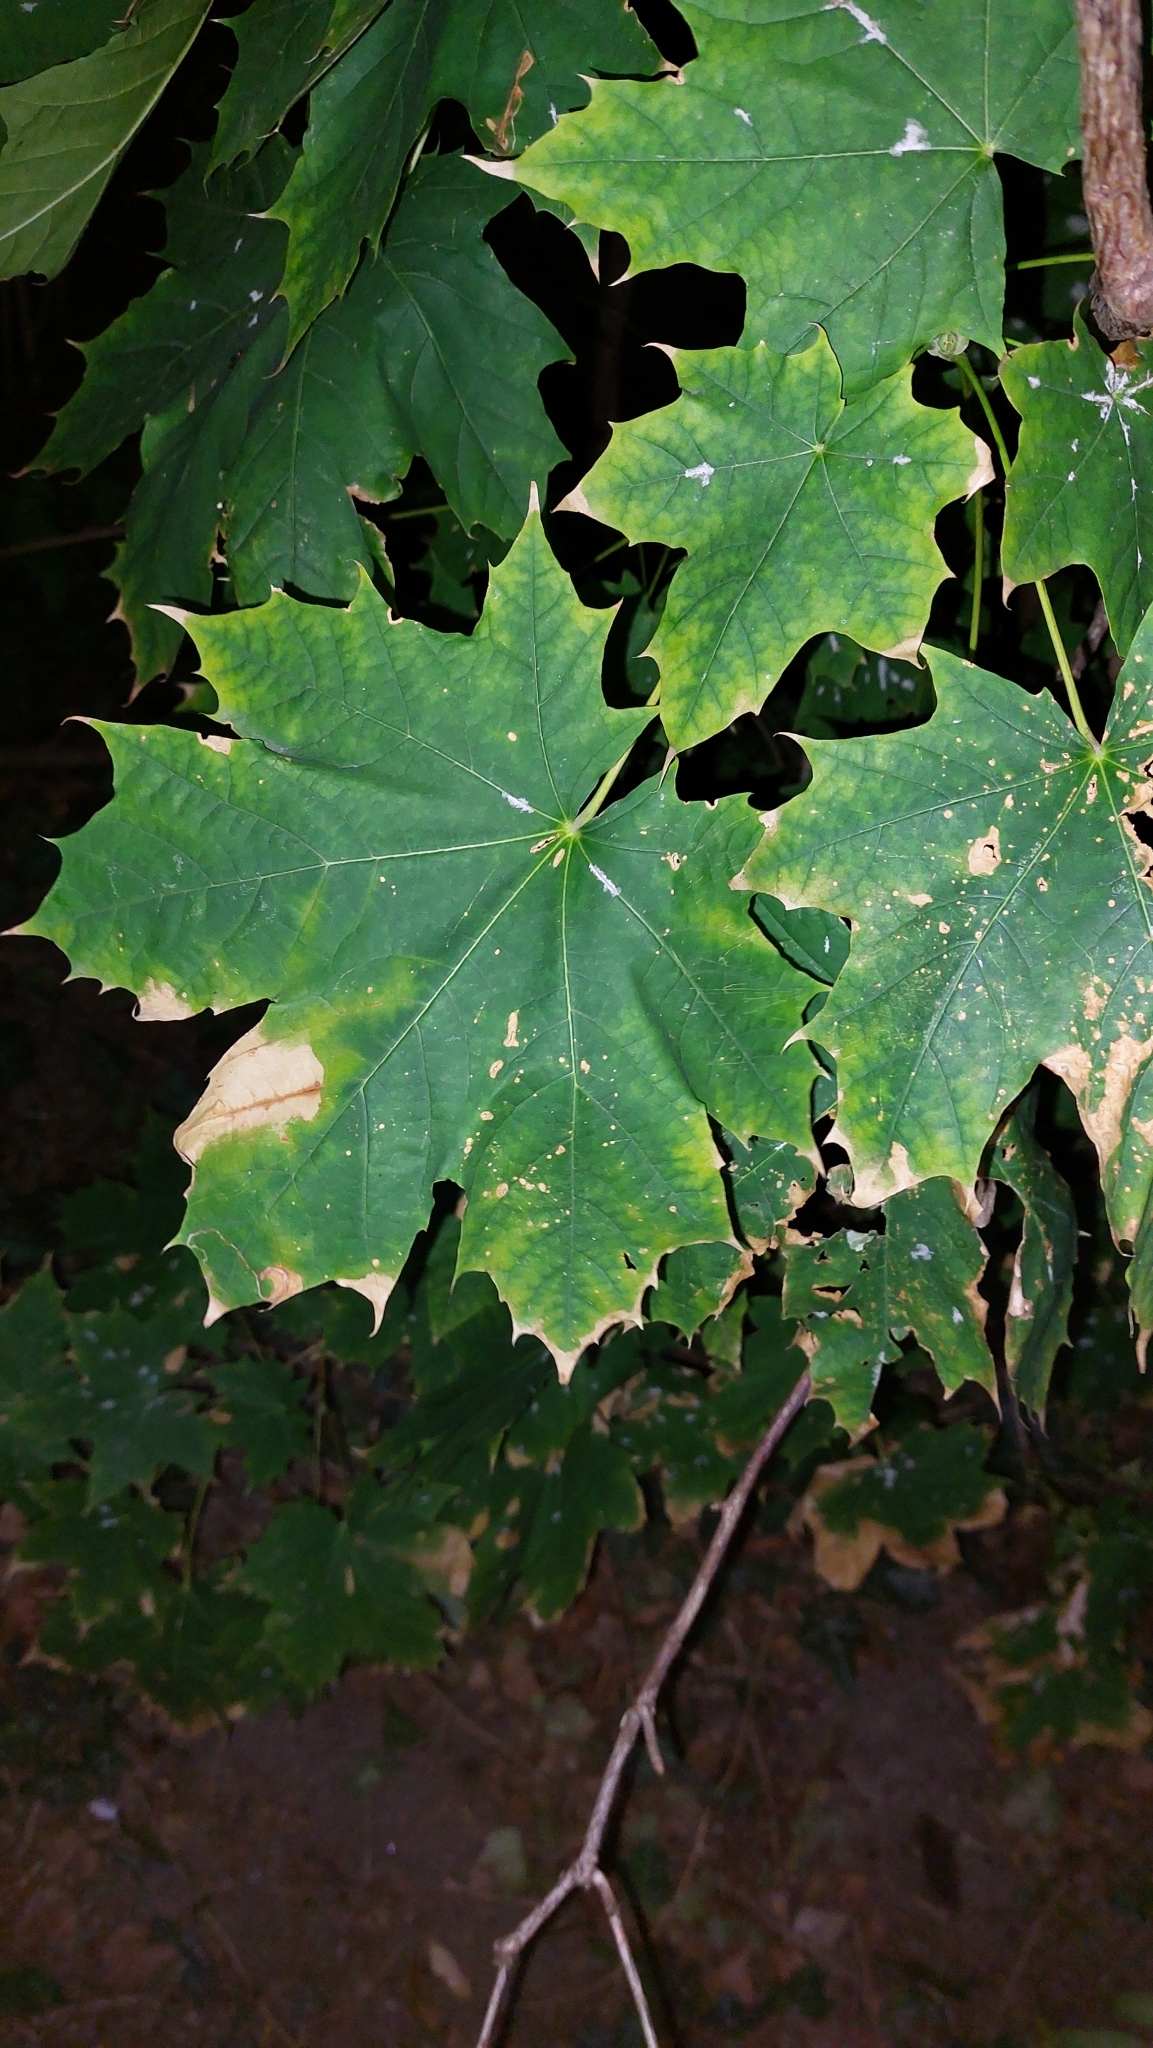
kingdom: Plantae
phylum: Tracheophyta
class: Magnoliopsida
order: Sapindales
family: Sapindaceae
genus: Acer
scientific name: Acer platanoides
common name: Norway maple
